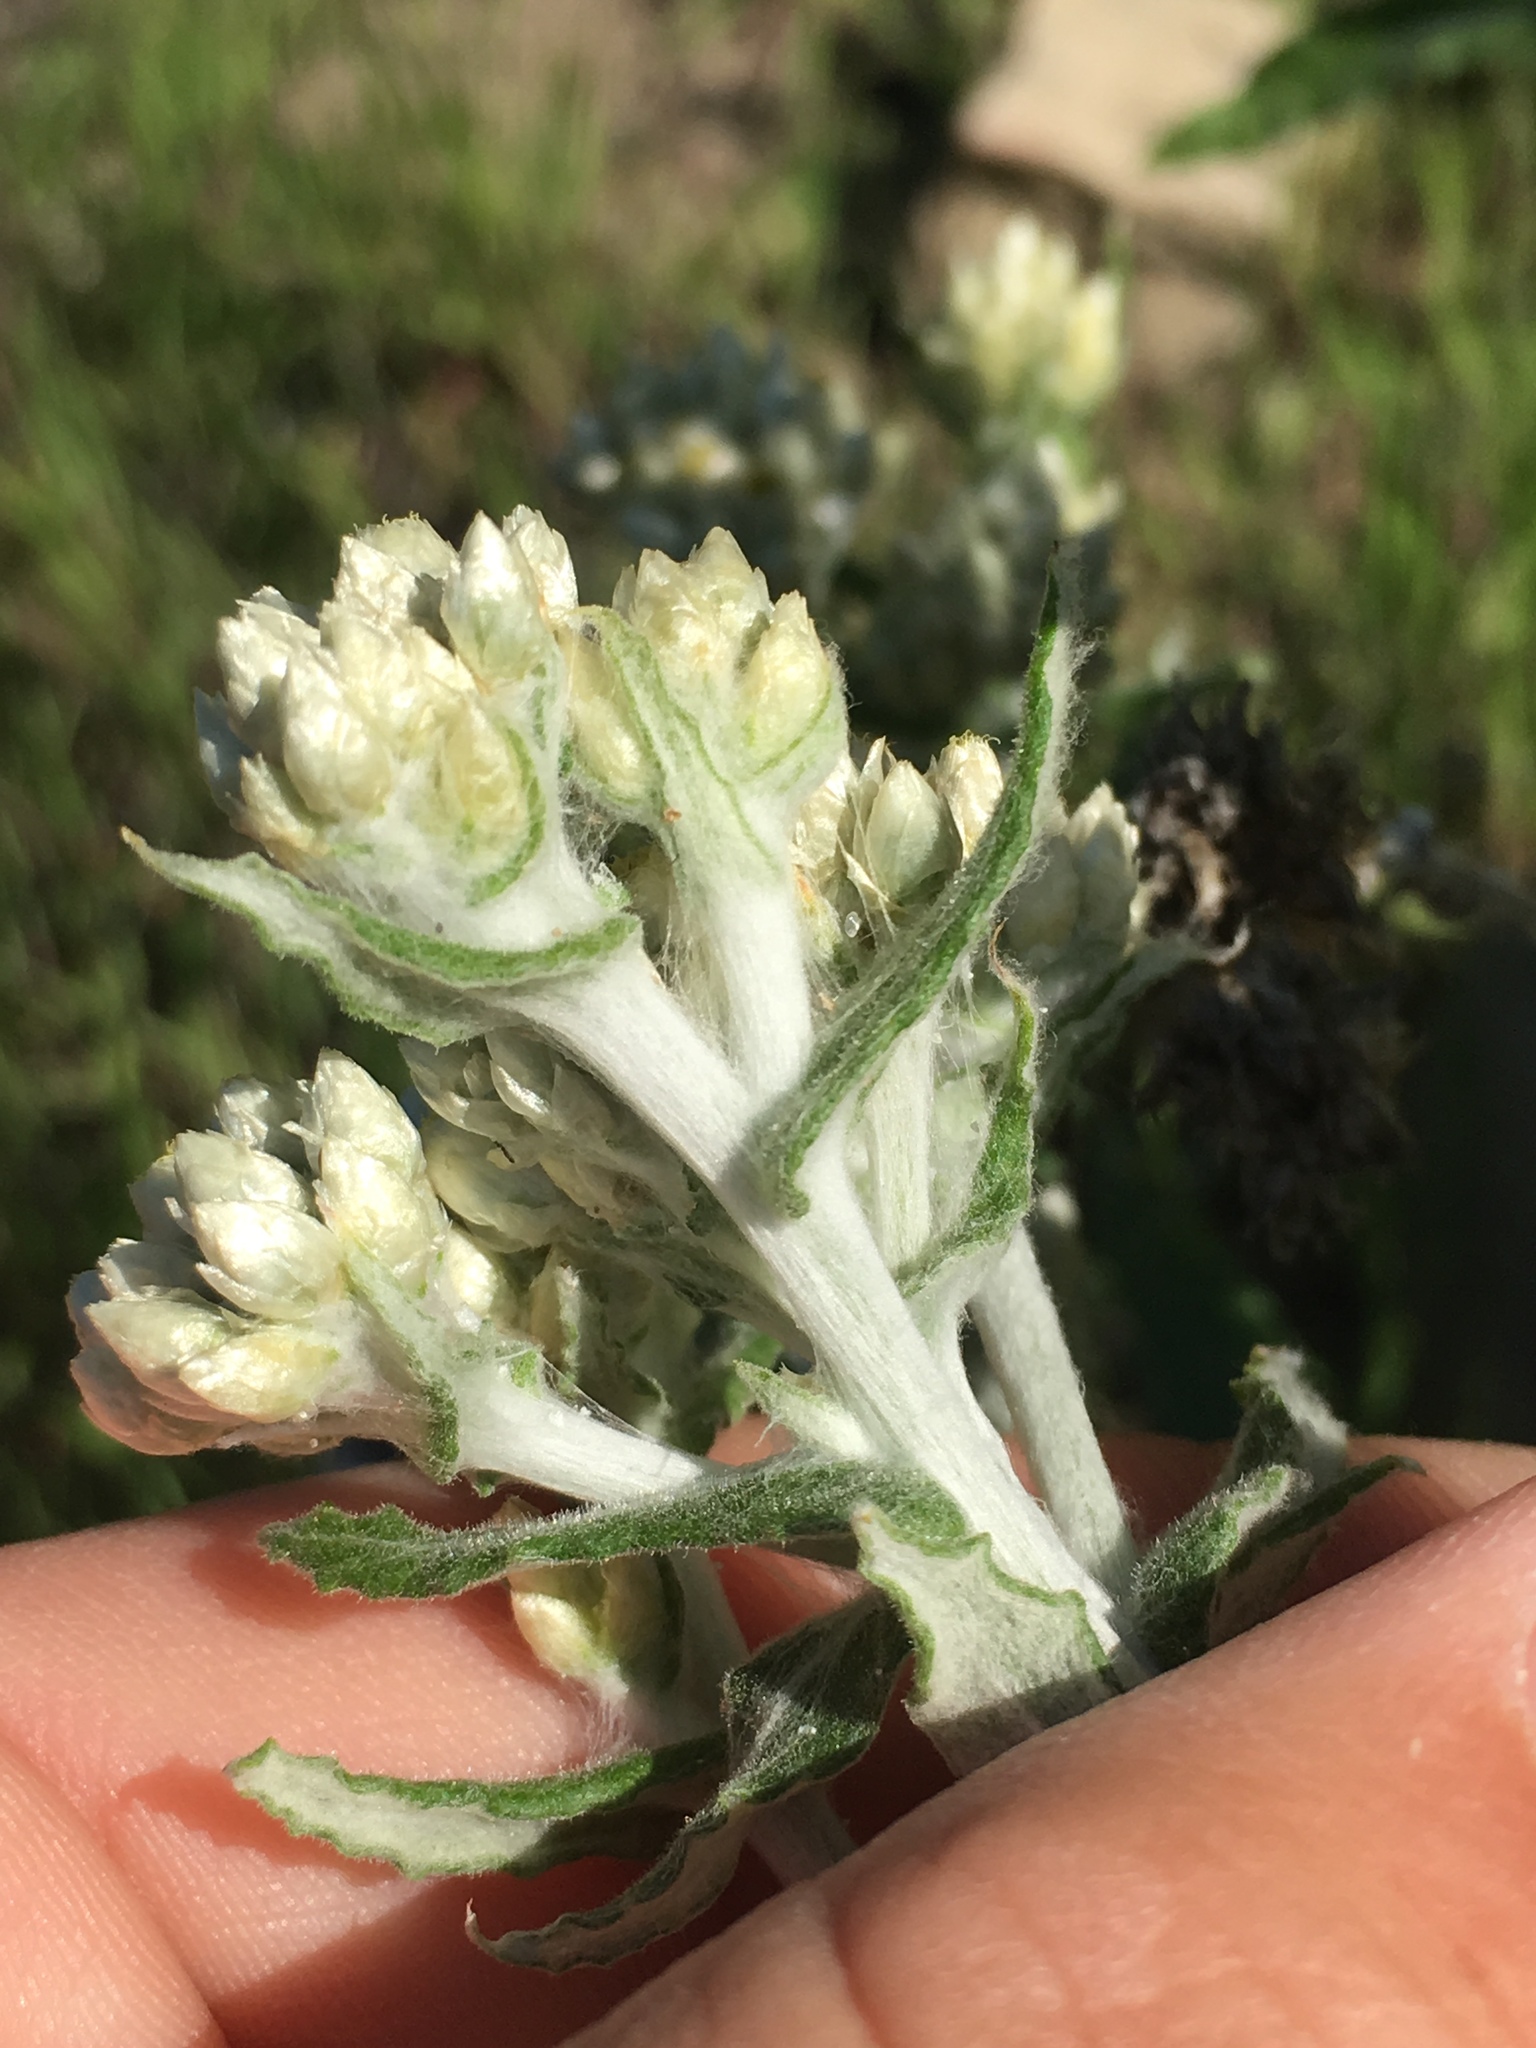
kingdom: Plantae
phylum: Tracheophyta
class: Magnoliopsida
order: Asterales
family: Asteraceae
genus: Pseudognaphalium
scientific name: Pseudognaphalium biolettii
